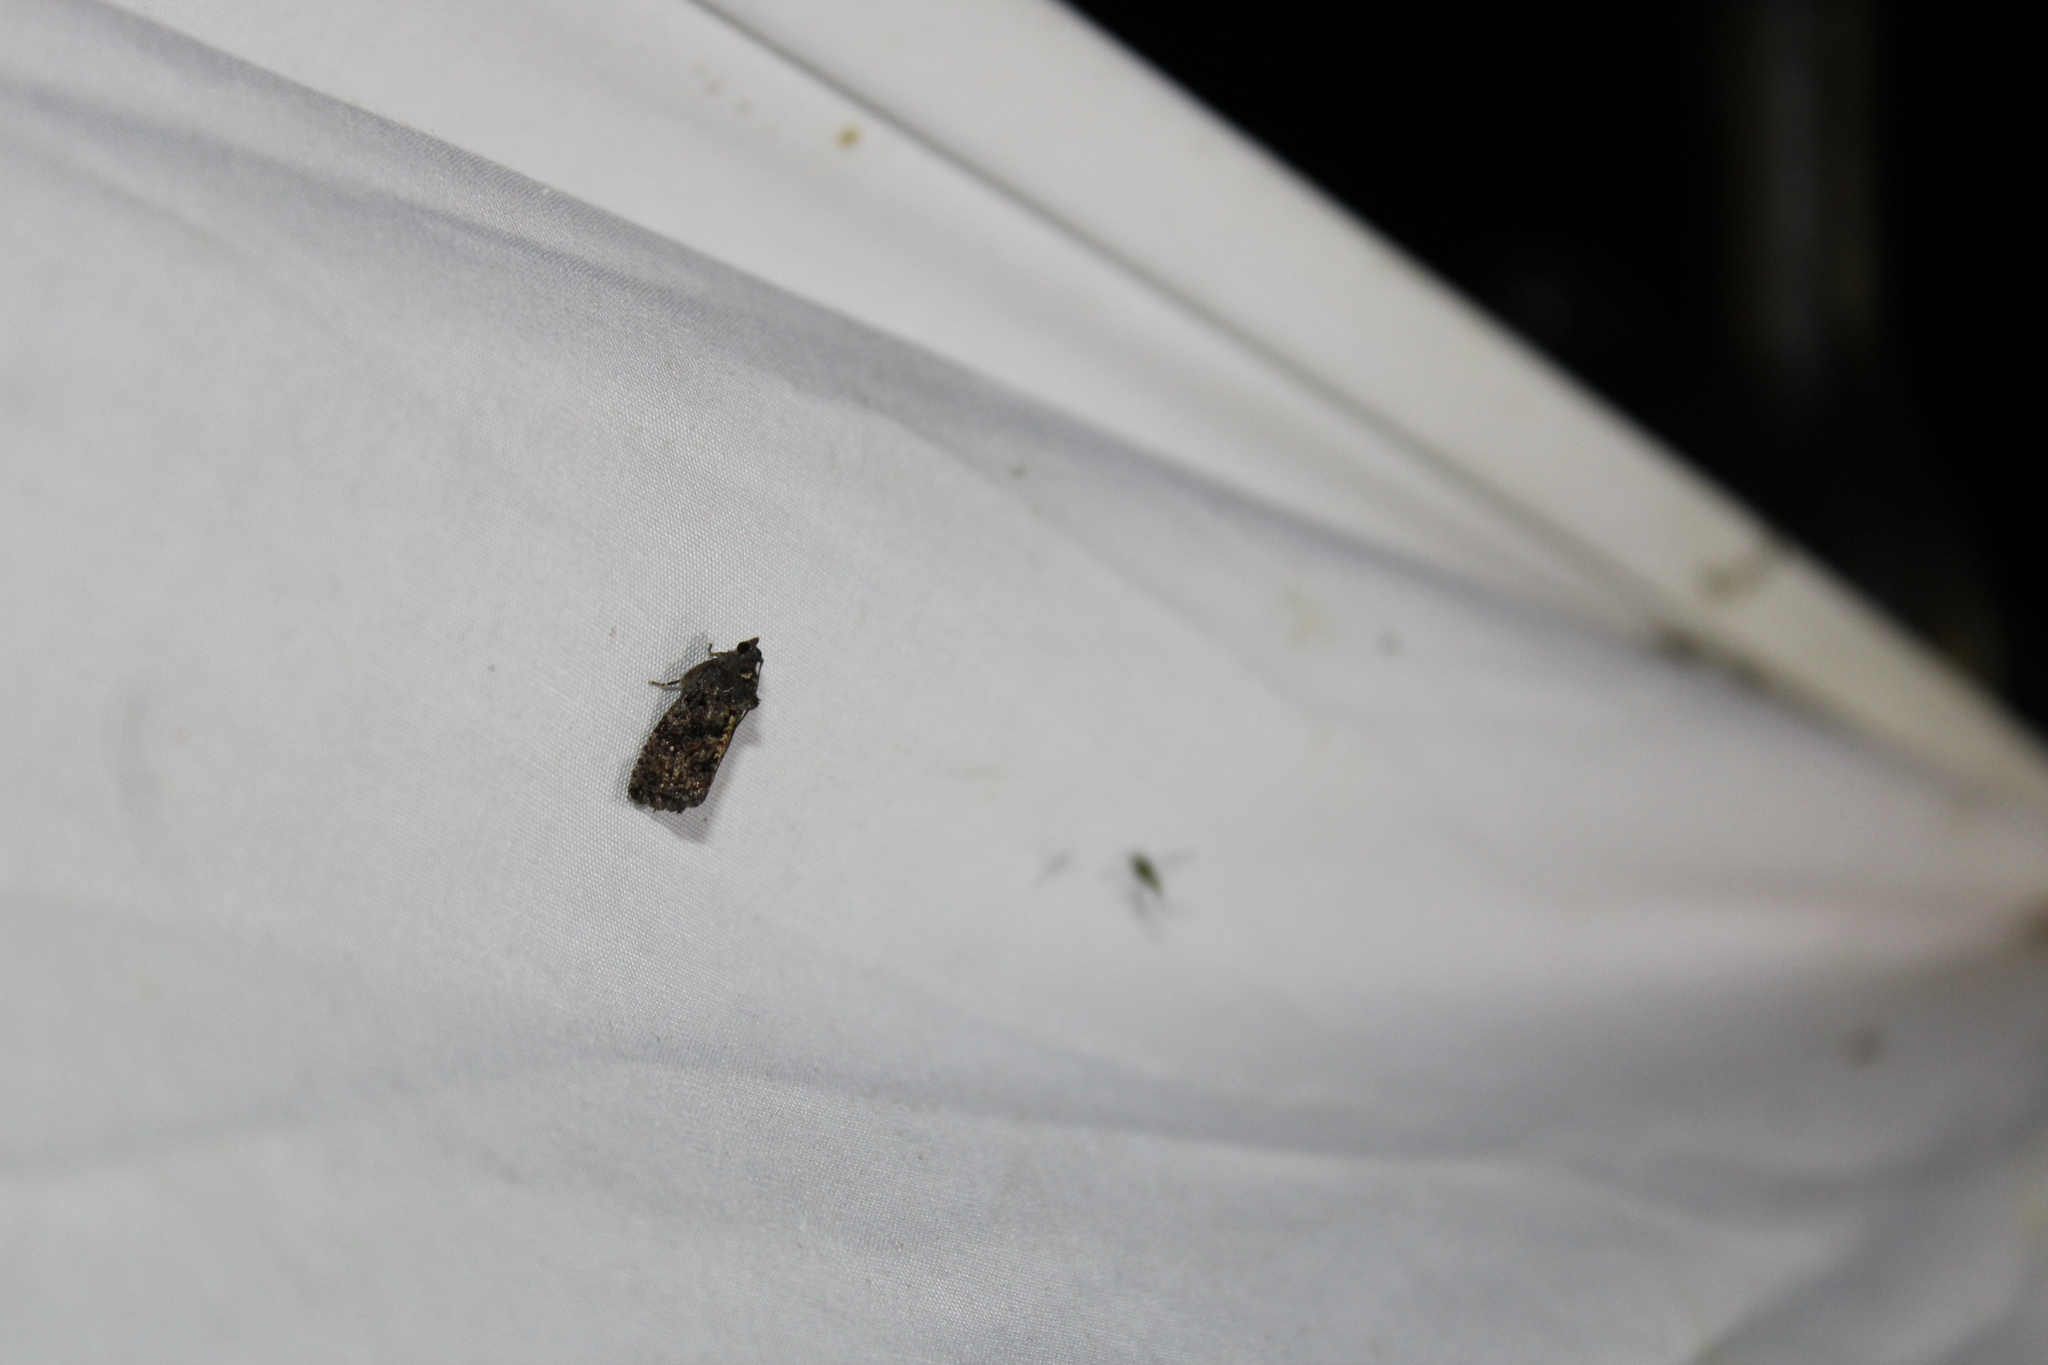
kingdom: Animalia
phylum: Arthropoda
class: Insecta
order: Lepidoptera
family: Tortricidae
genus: Gymnandrosoma
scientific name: Gymnandrosoma punctidiscanum
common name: Dotted ecdytolopha moth
